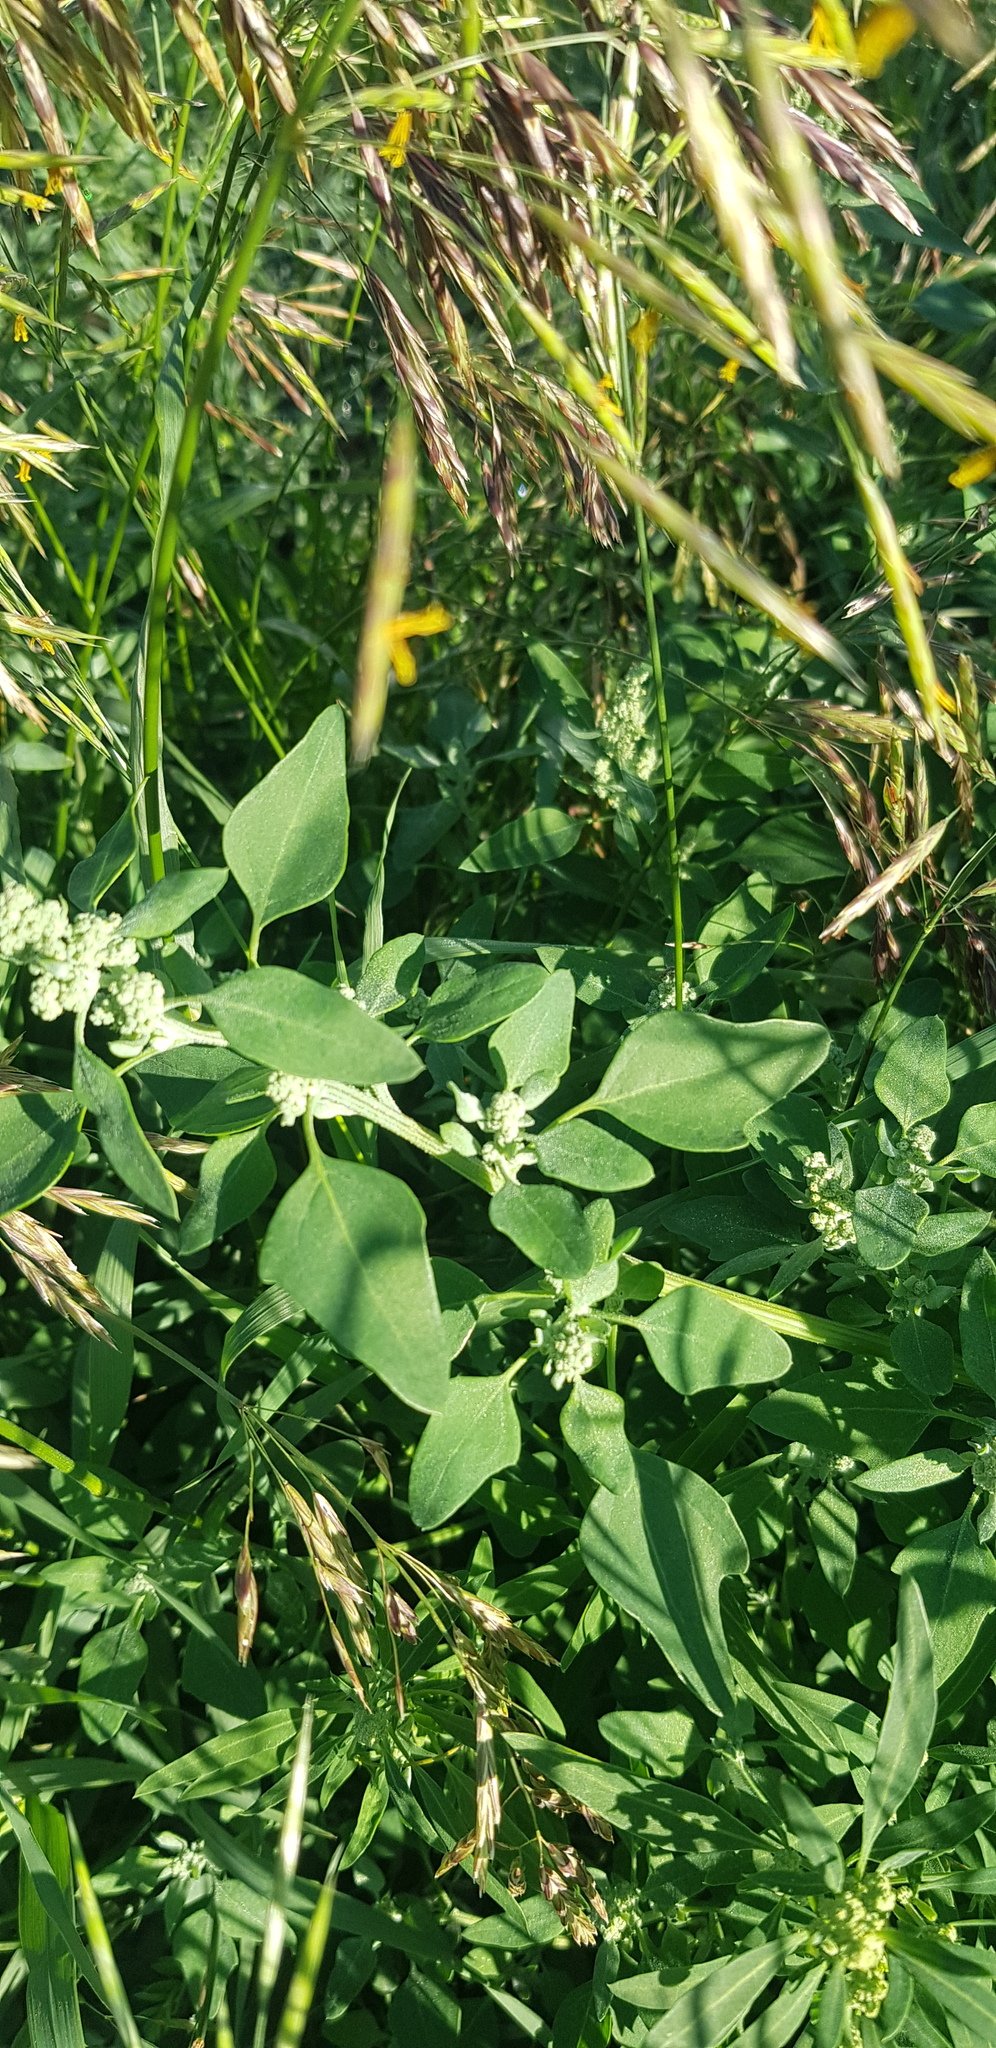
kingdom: Plantae
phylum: Tracheophyta
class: Magnoliopsida
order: Caryophyllales
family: Amaranthaceae
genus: Chenopodium
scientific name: Chenopodium album
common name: Fat-hen
